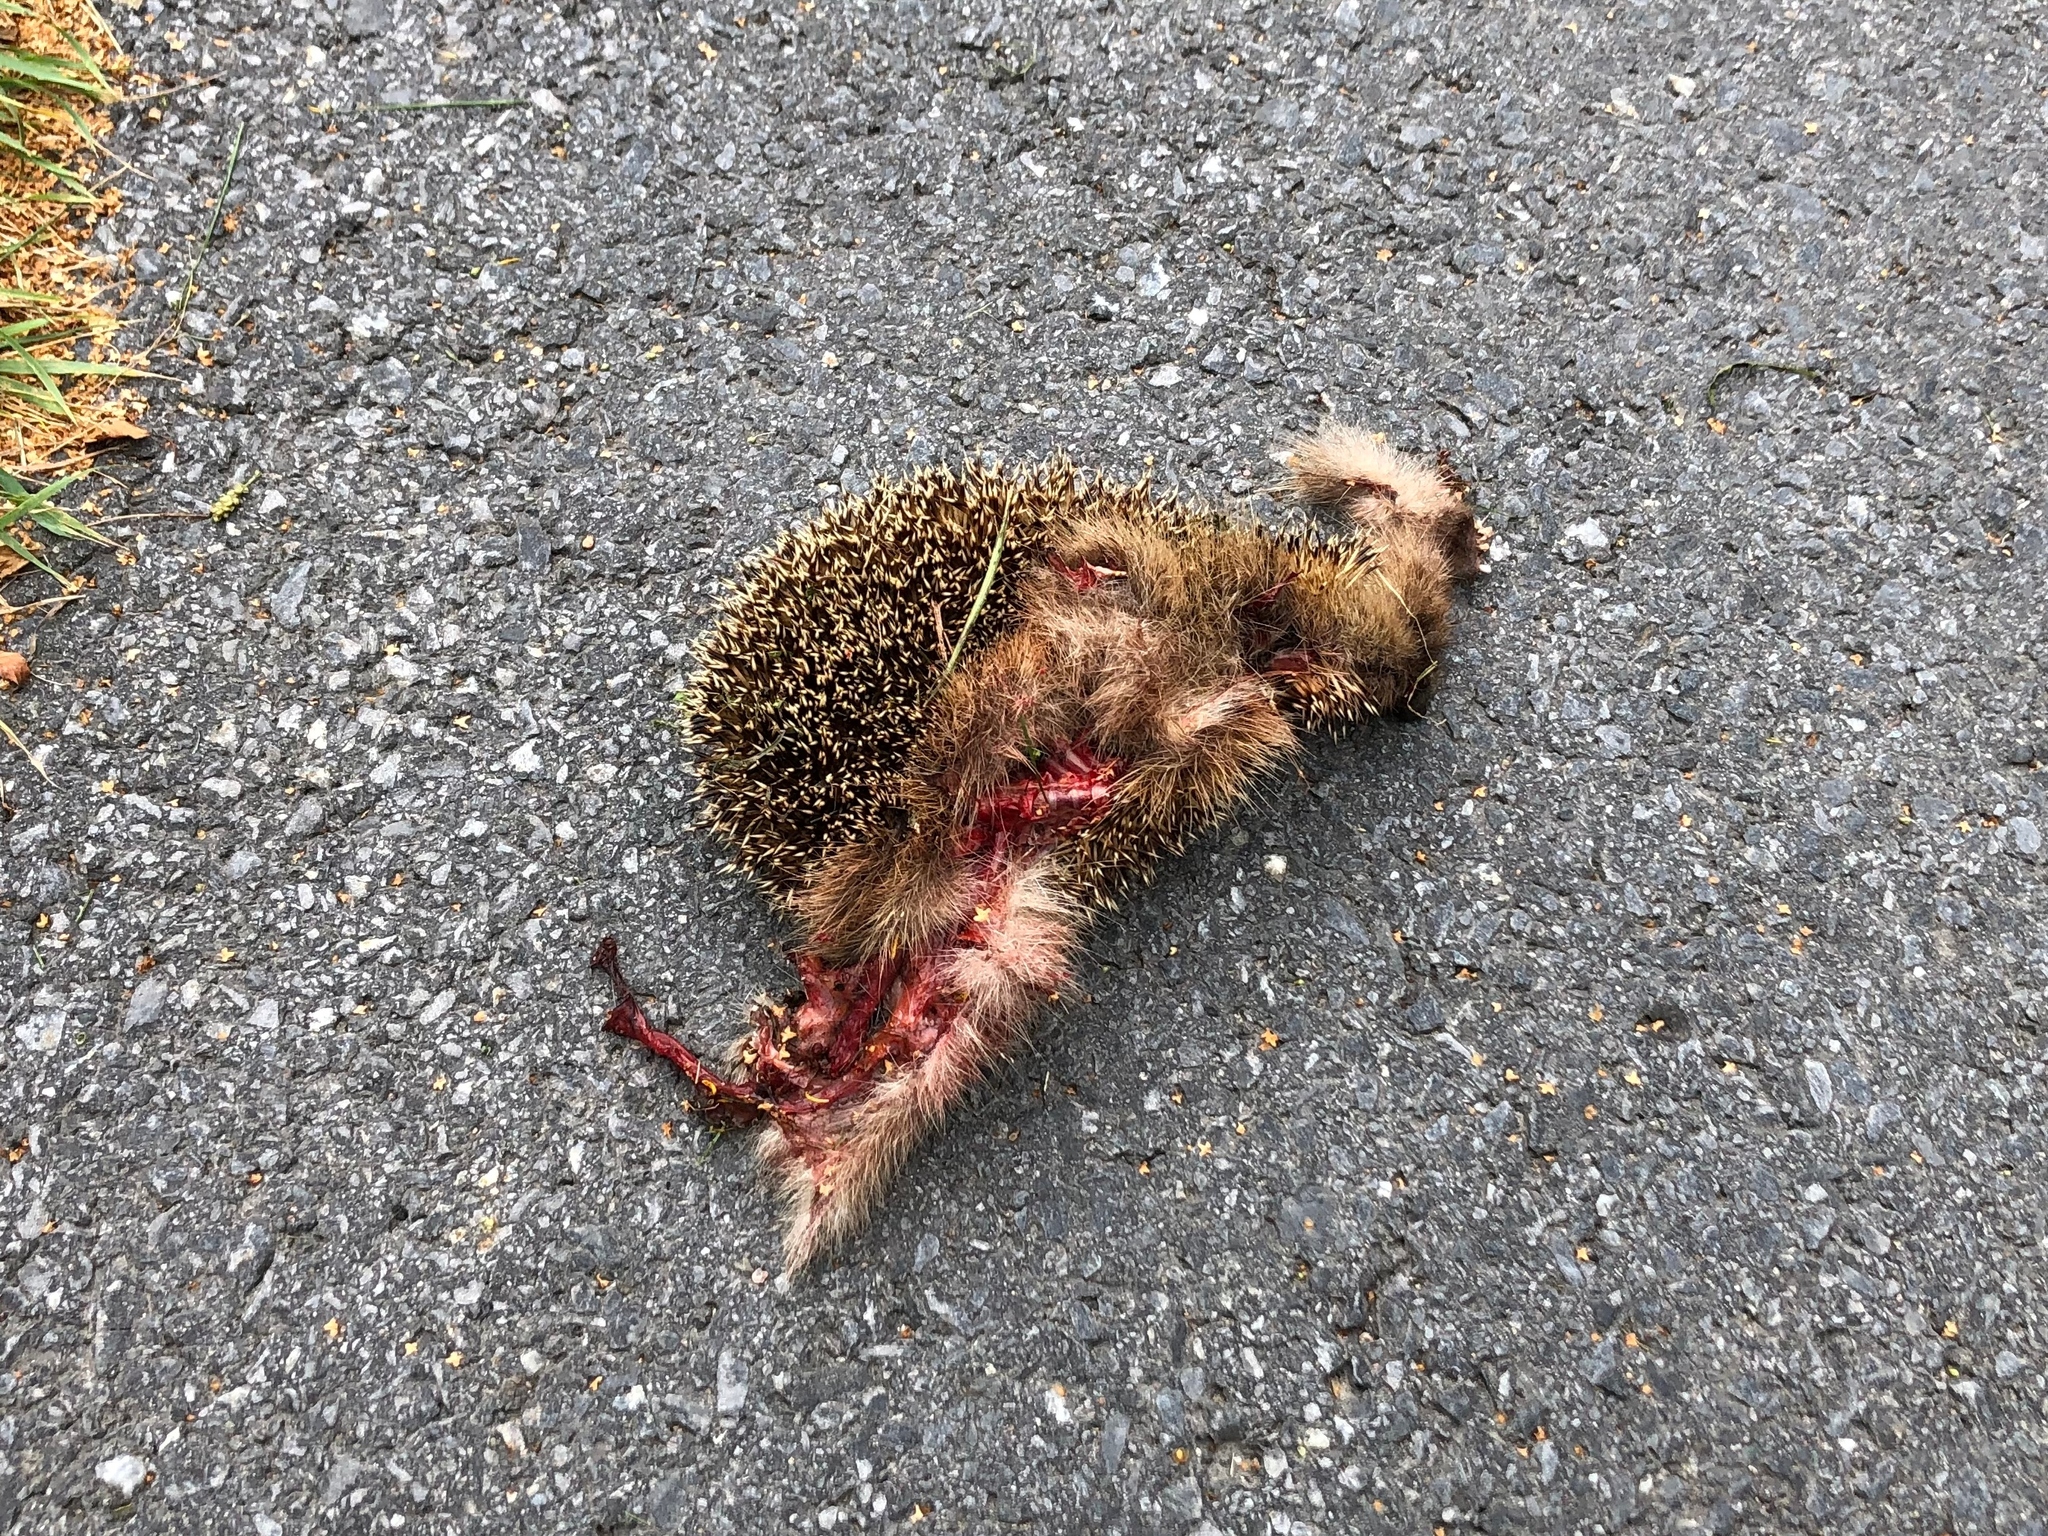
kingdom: Animalia
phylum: Chordata
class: Mammalia
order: Erinaceomorpha
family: Erinaceidae
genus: Erinaceus
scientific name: Erinaceus europaeus
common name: West european hedgehog
